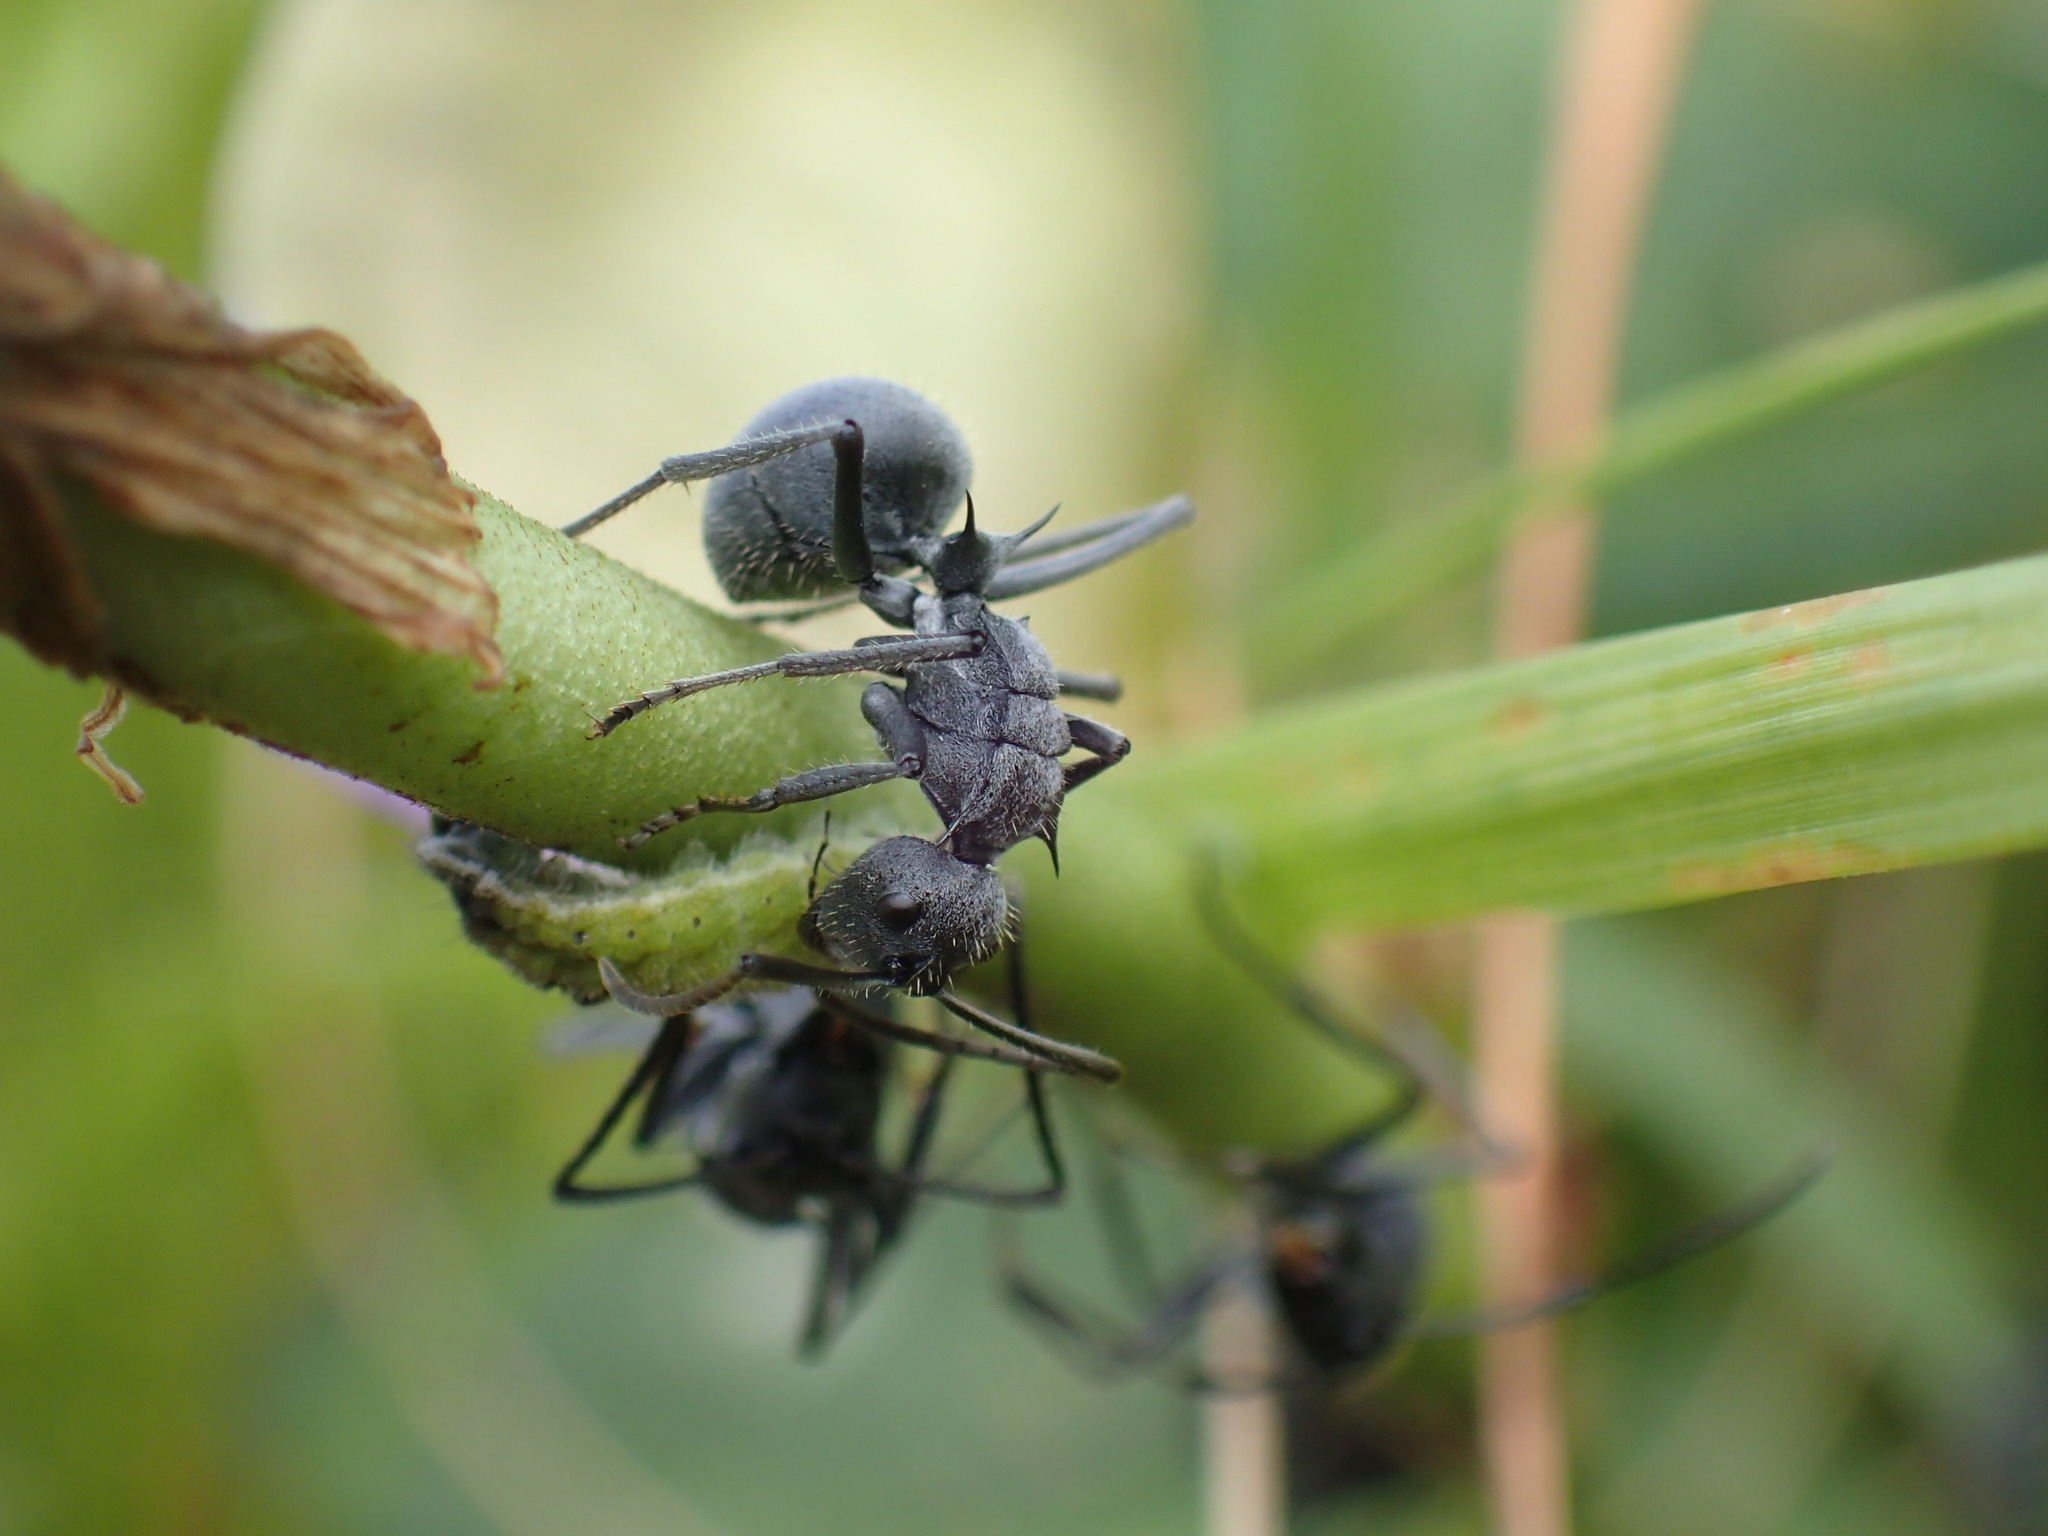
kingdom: Animalia
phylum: Arthropoda
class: Insecta
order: Hymenoptera
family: Formicidae
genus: Polyrhachis
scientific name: Polyrhachis schistacea
